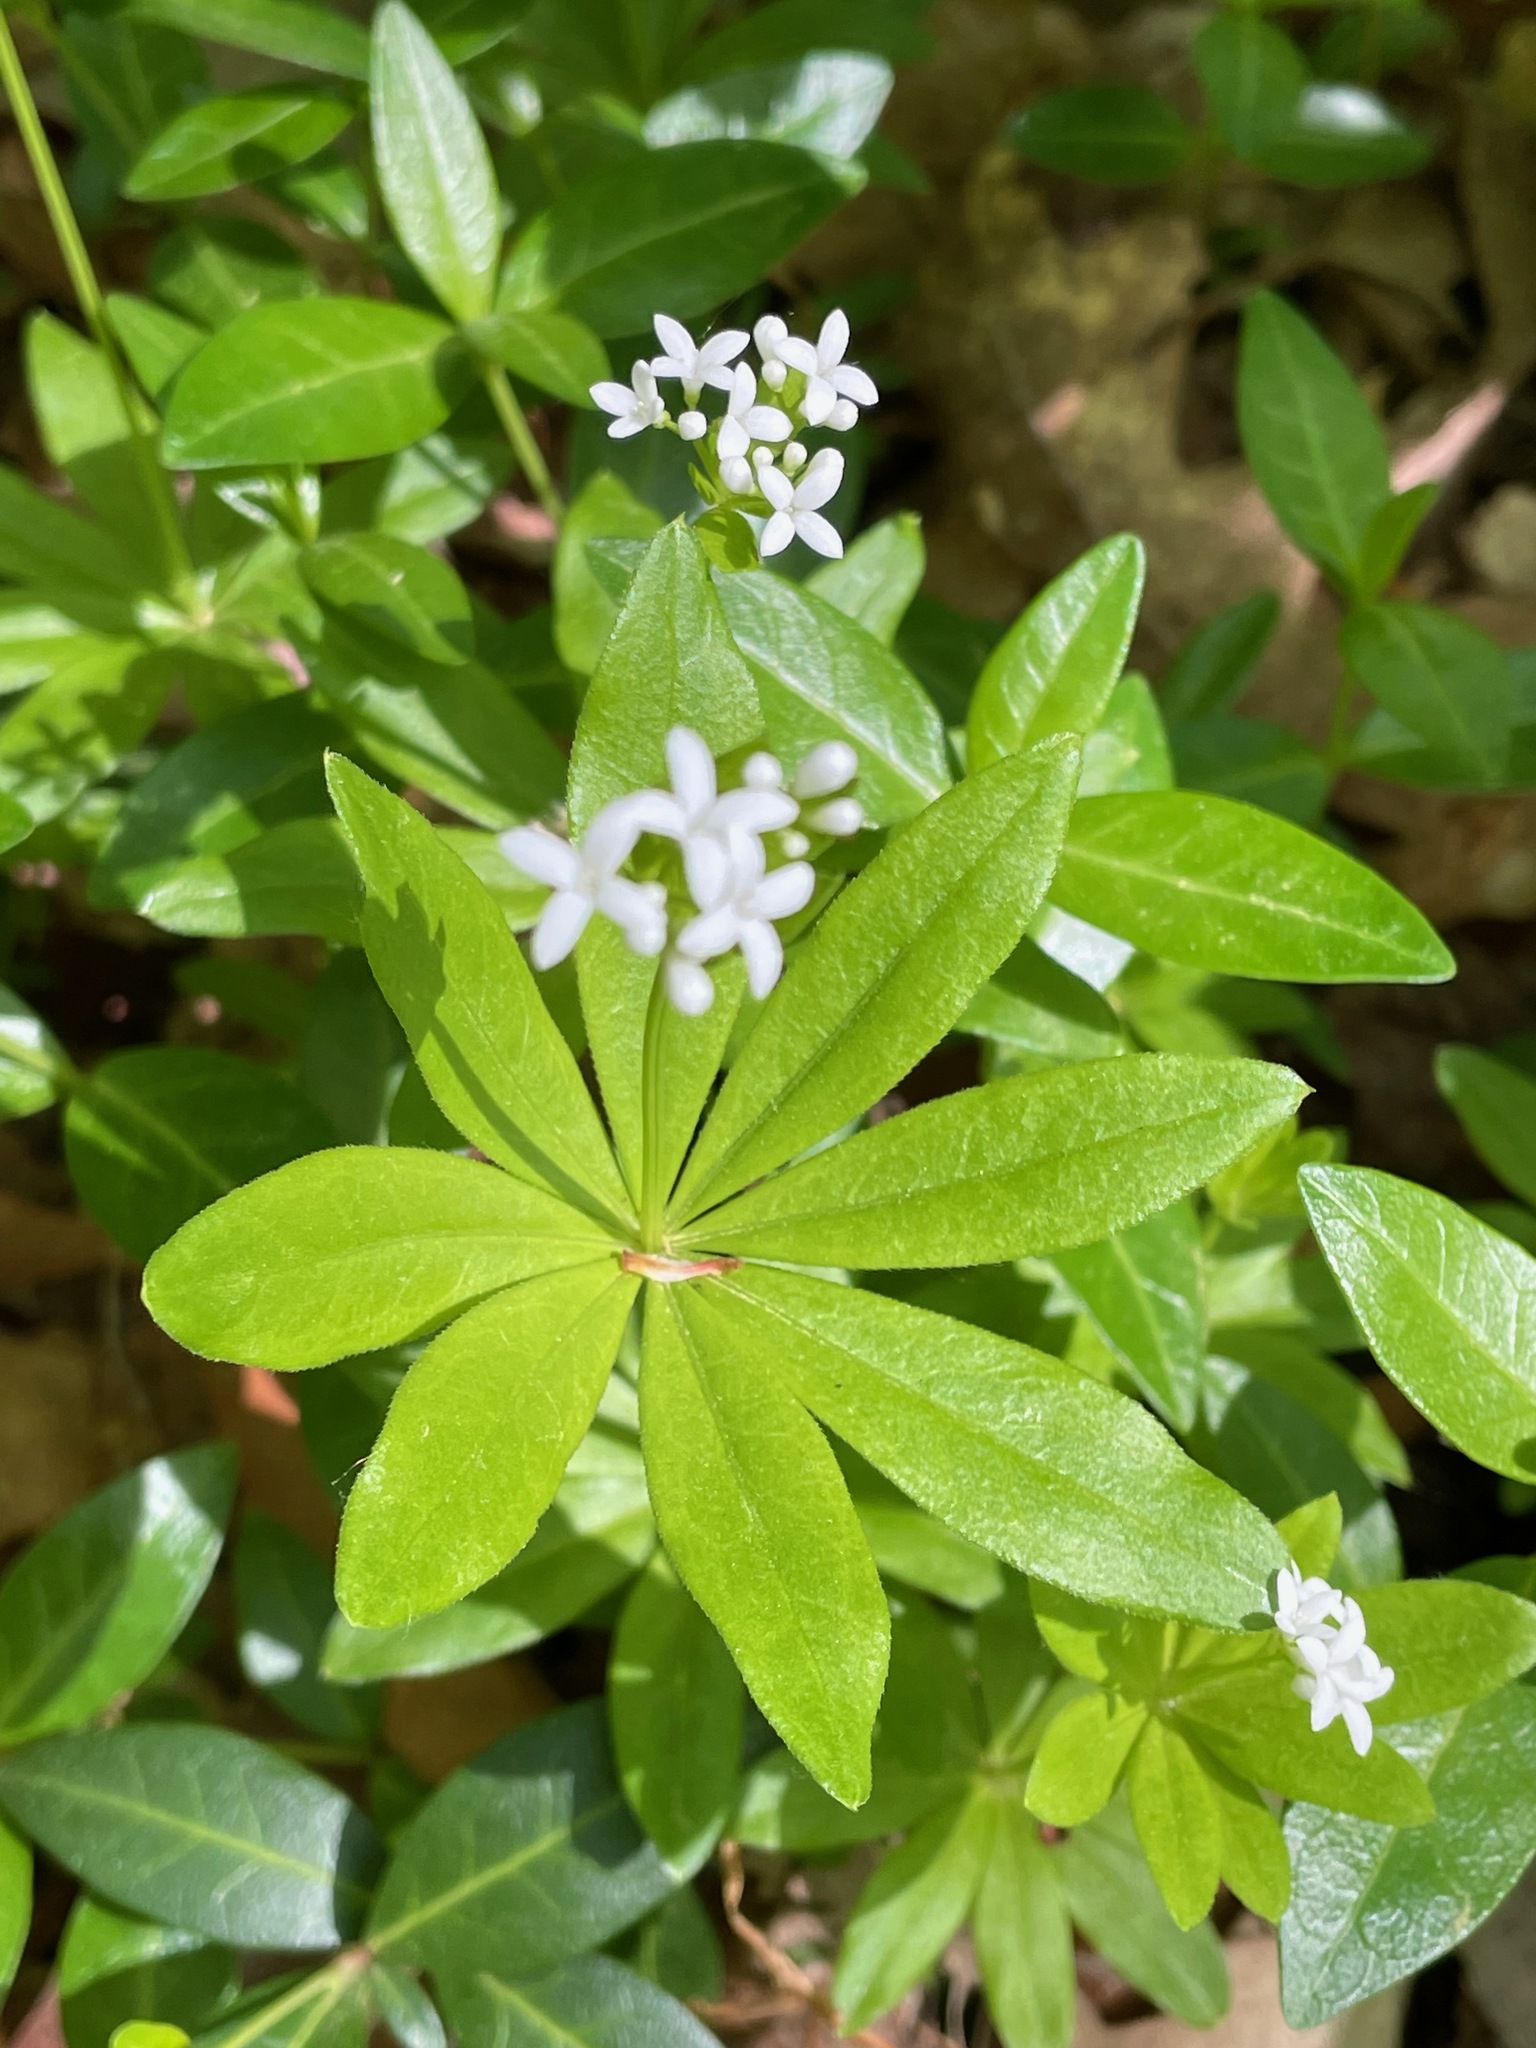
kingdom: Plantae
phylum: Tracheophyta
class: Magnoliopsida
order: Gentianales
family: Rubiaceae
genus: Galium
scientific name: Galium odoratum
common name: Sweet woodruff
